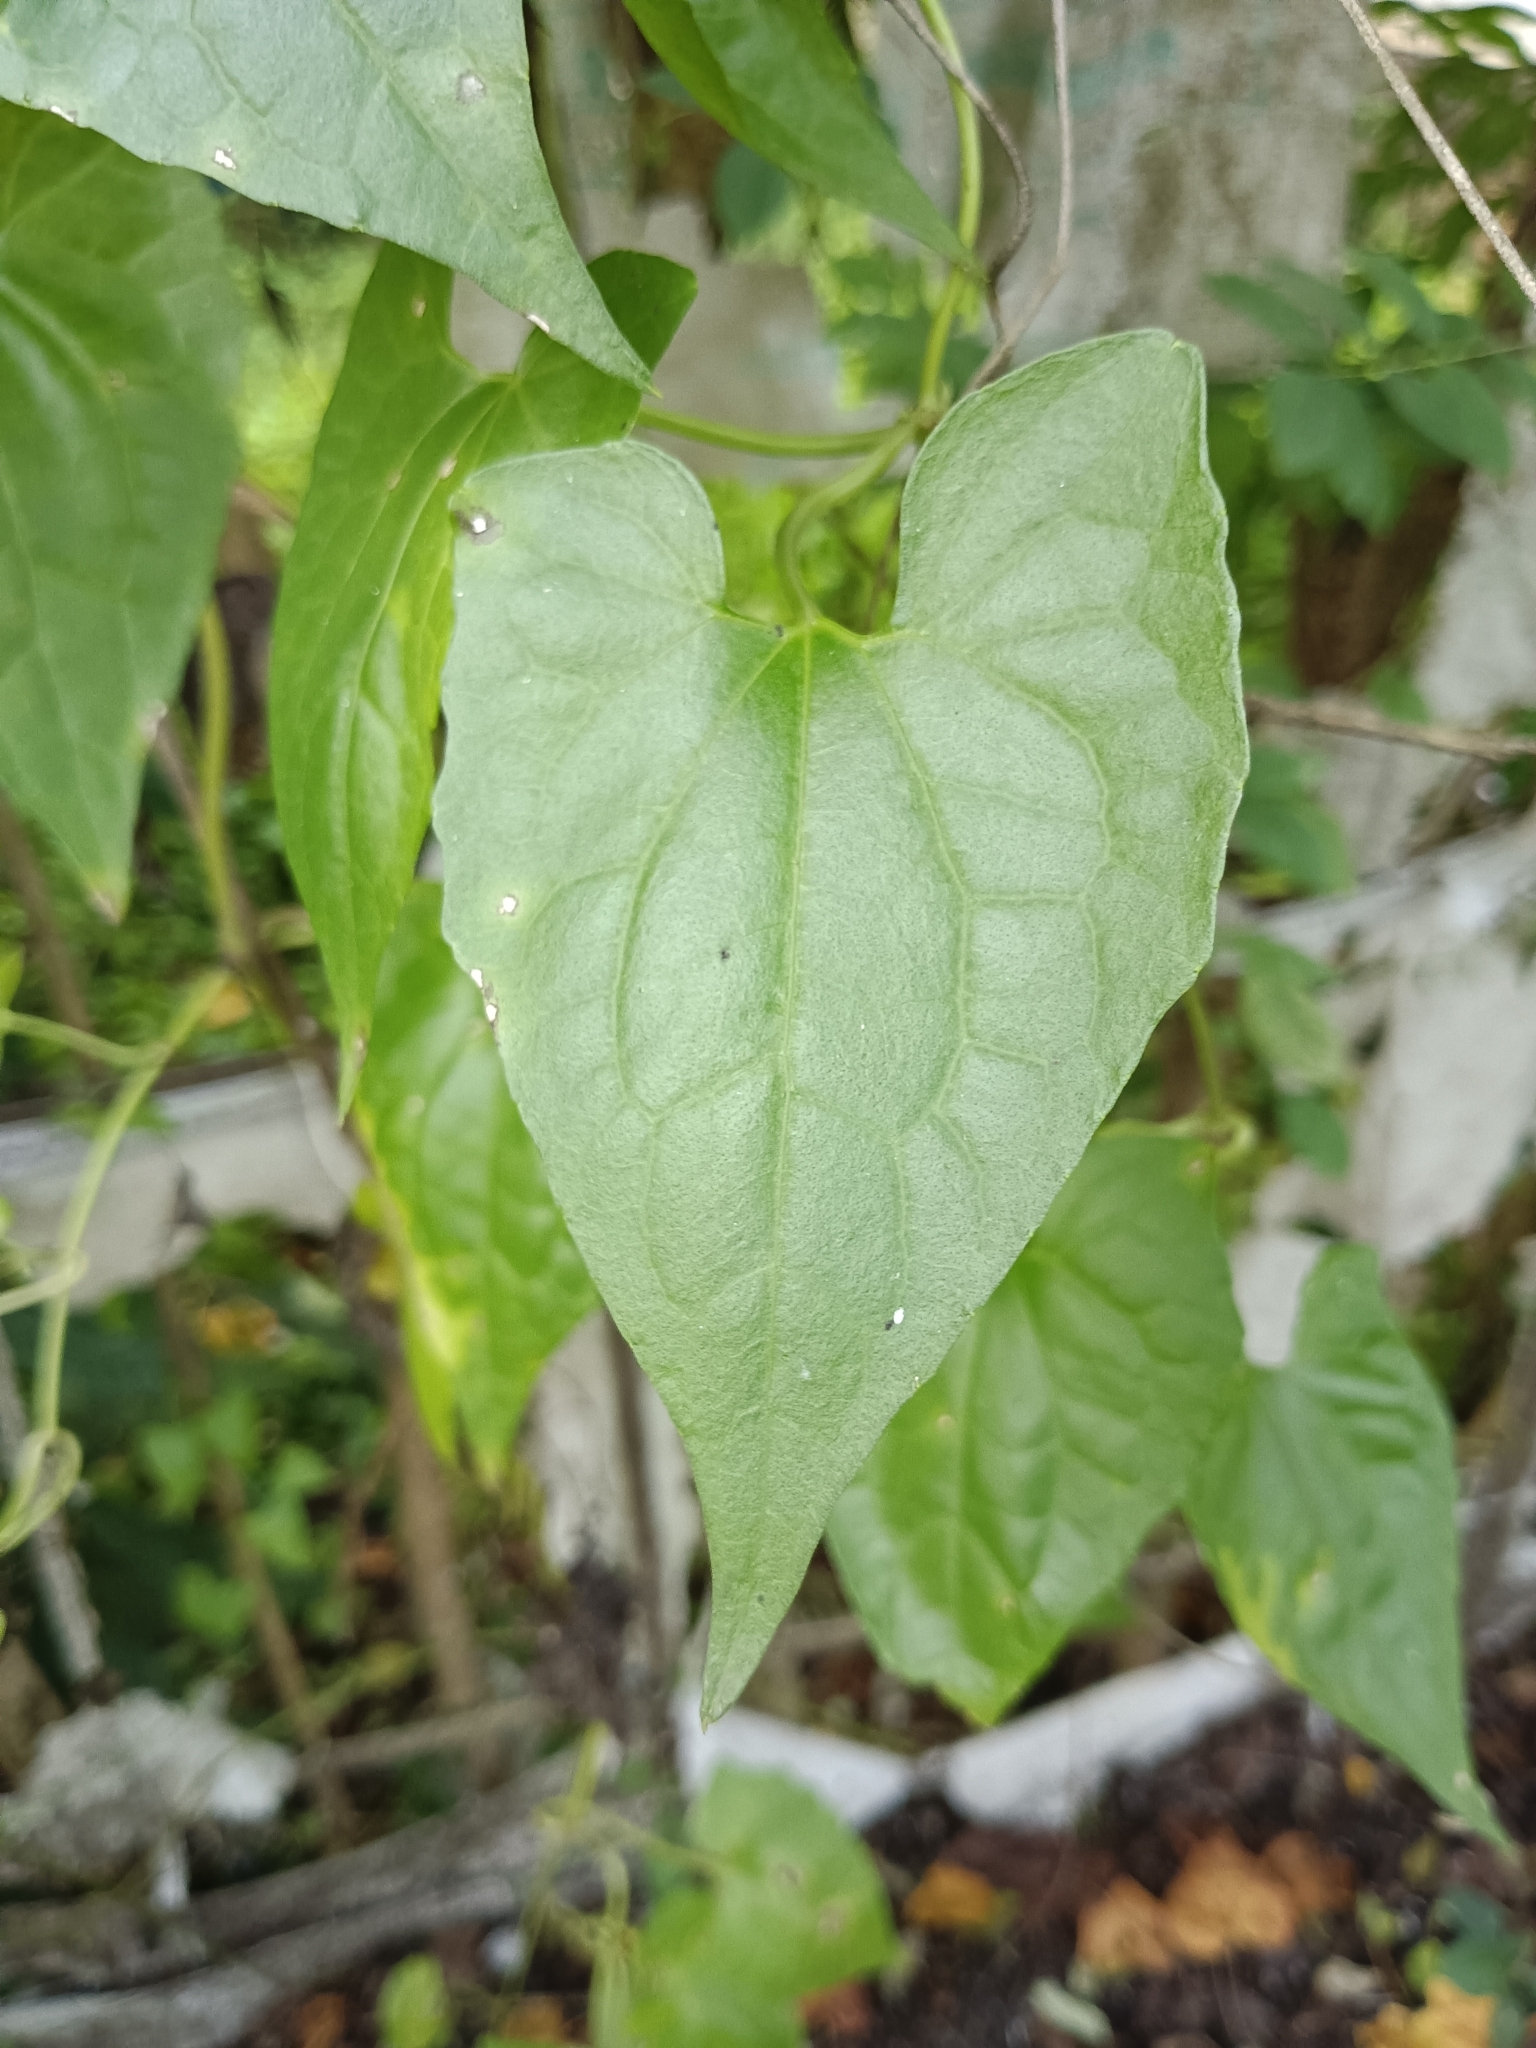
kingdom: Plantae
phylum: Tracheophyta
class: Magnoliopsida
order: Asterales
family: Asteraceae
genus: Mikania
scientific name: Mikania micrantha
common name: Mile-a-minute
